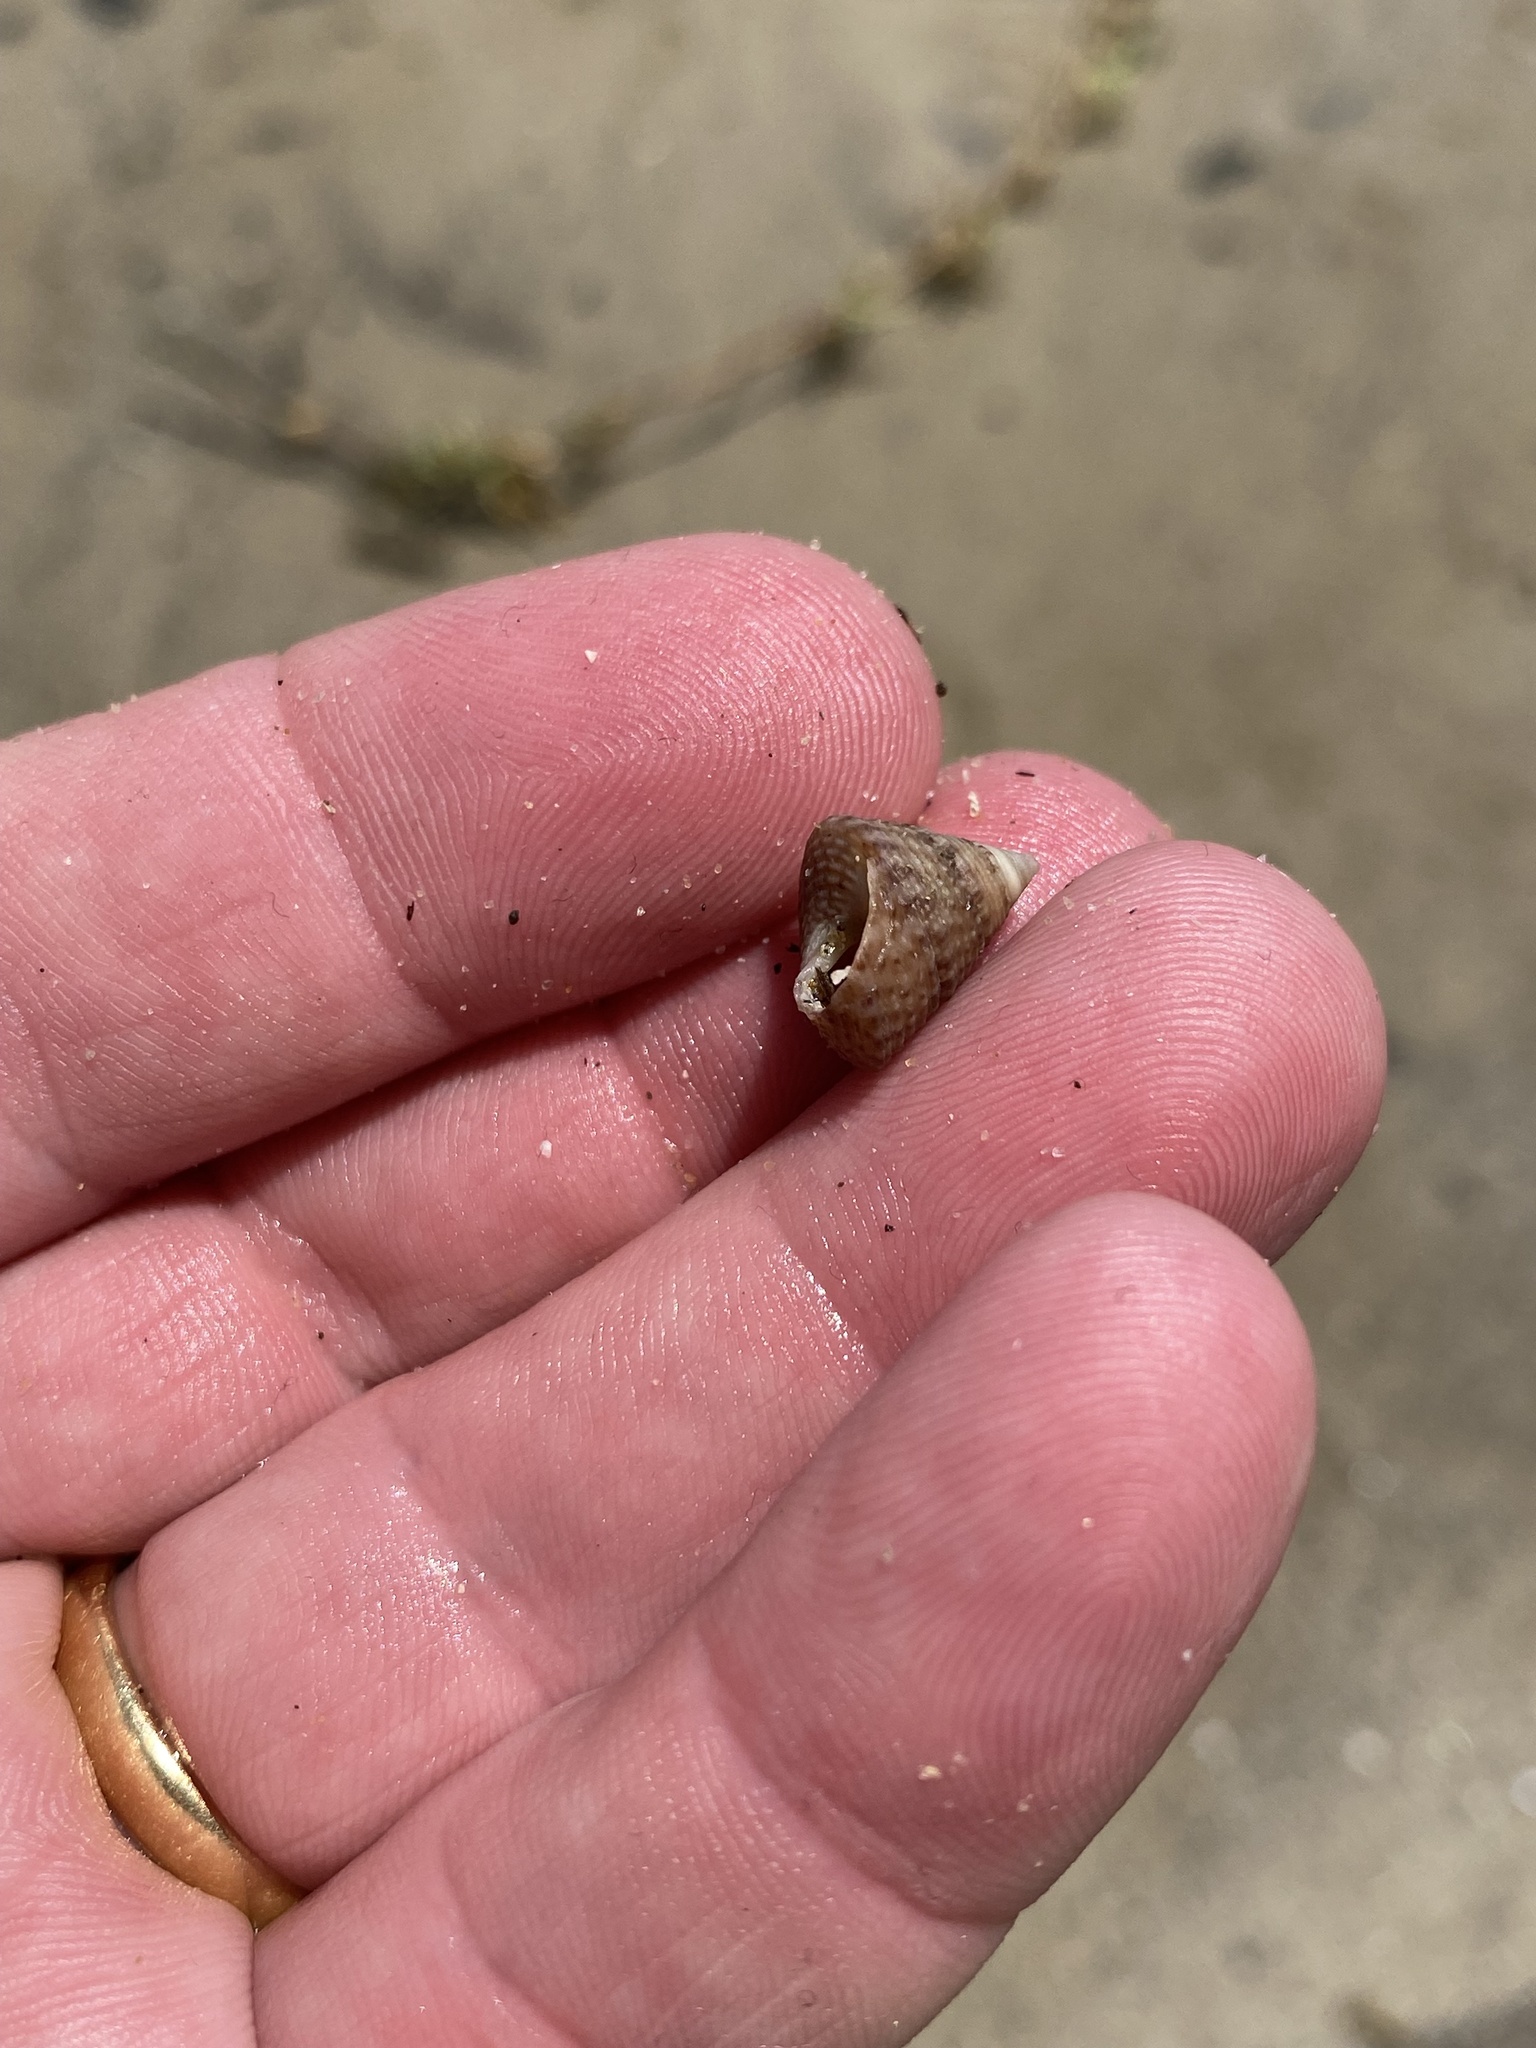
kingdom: Animalia
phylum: Mollusca
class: Gastropoda
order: Trochida
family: Trochidae
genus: Calthalotia
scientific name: Calthalotia fragum
